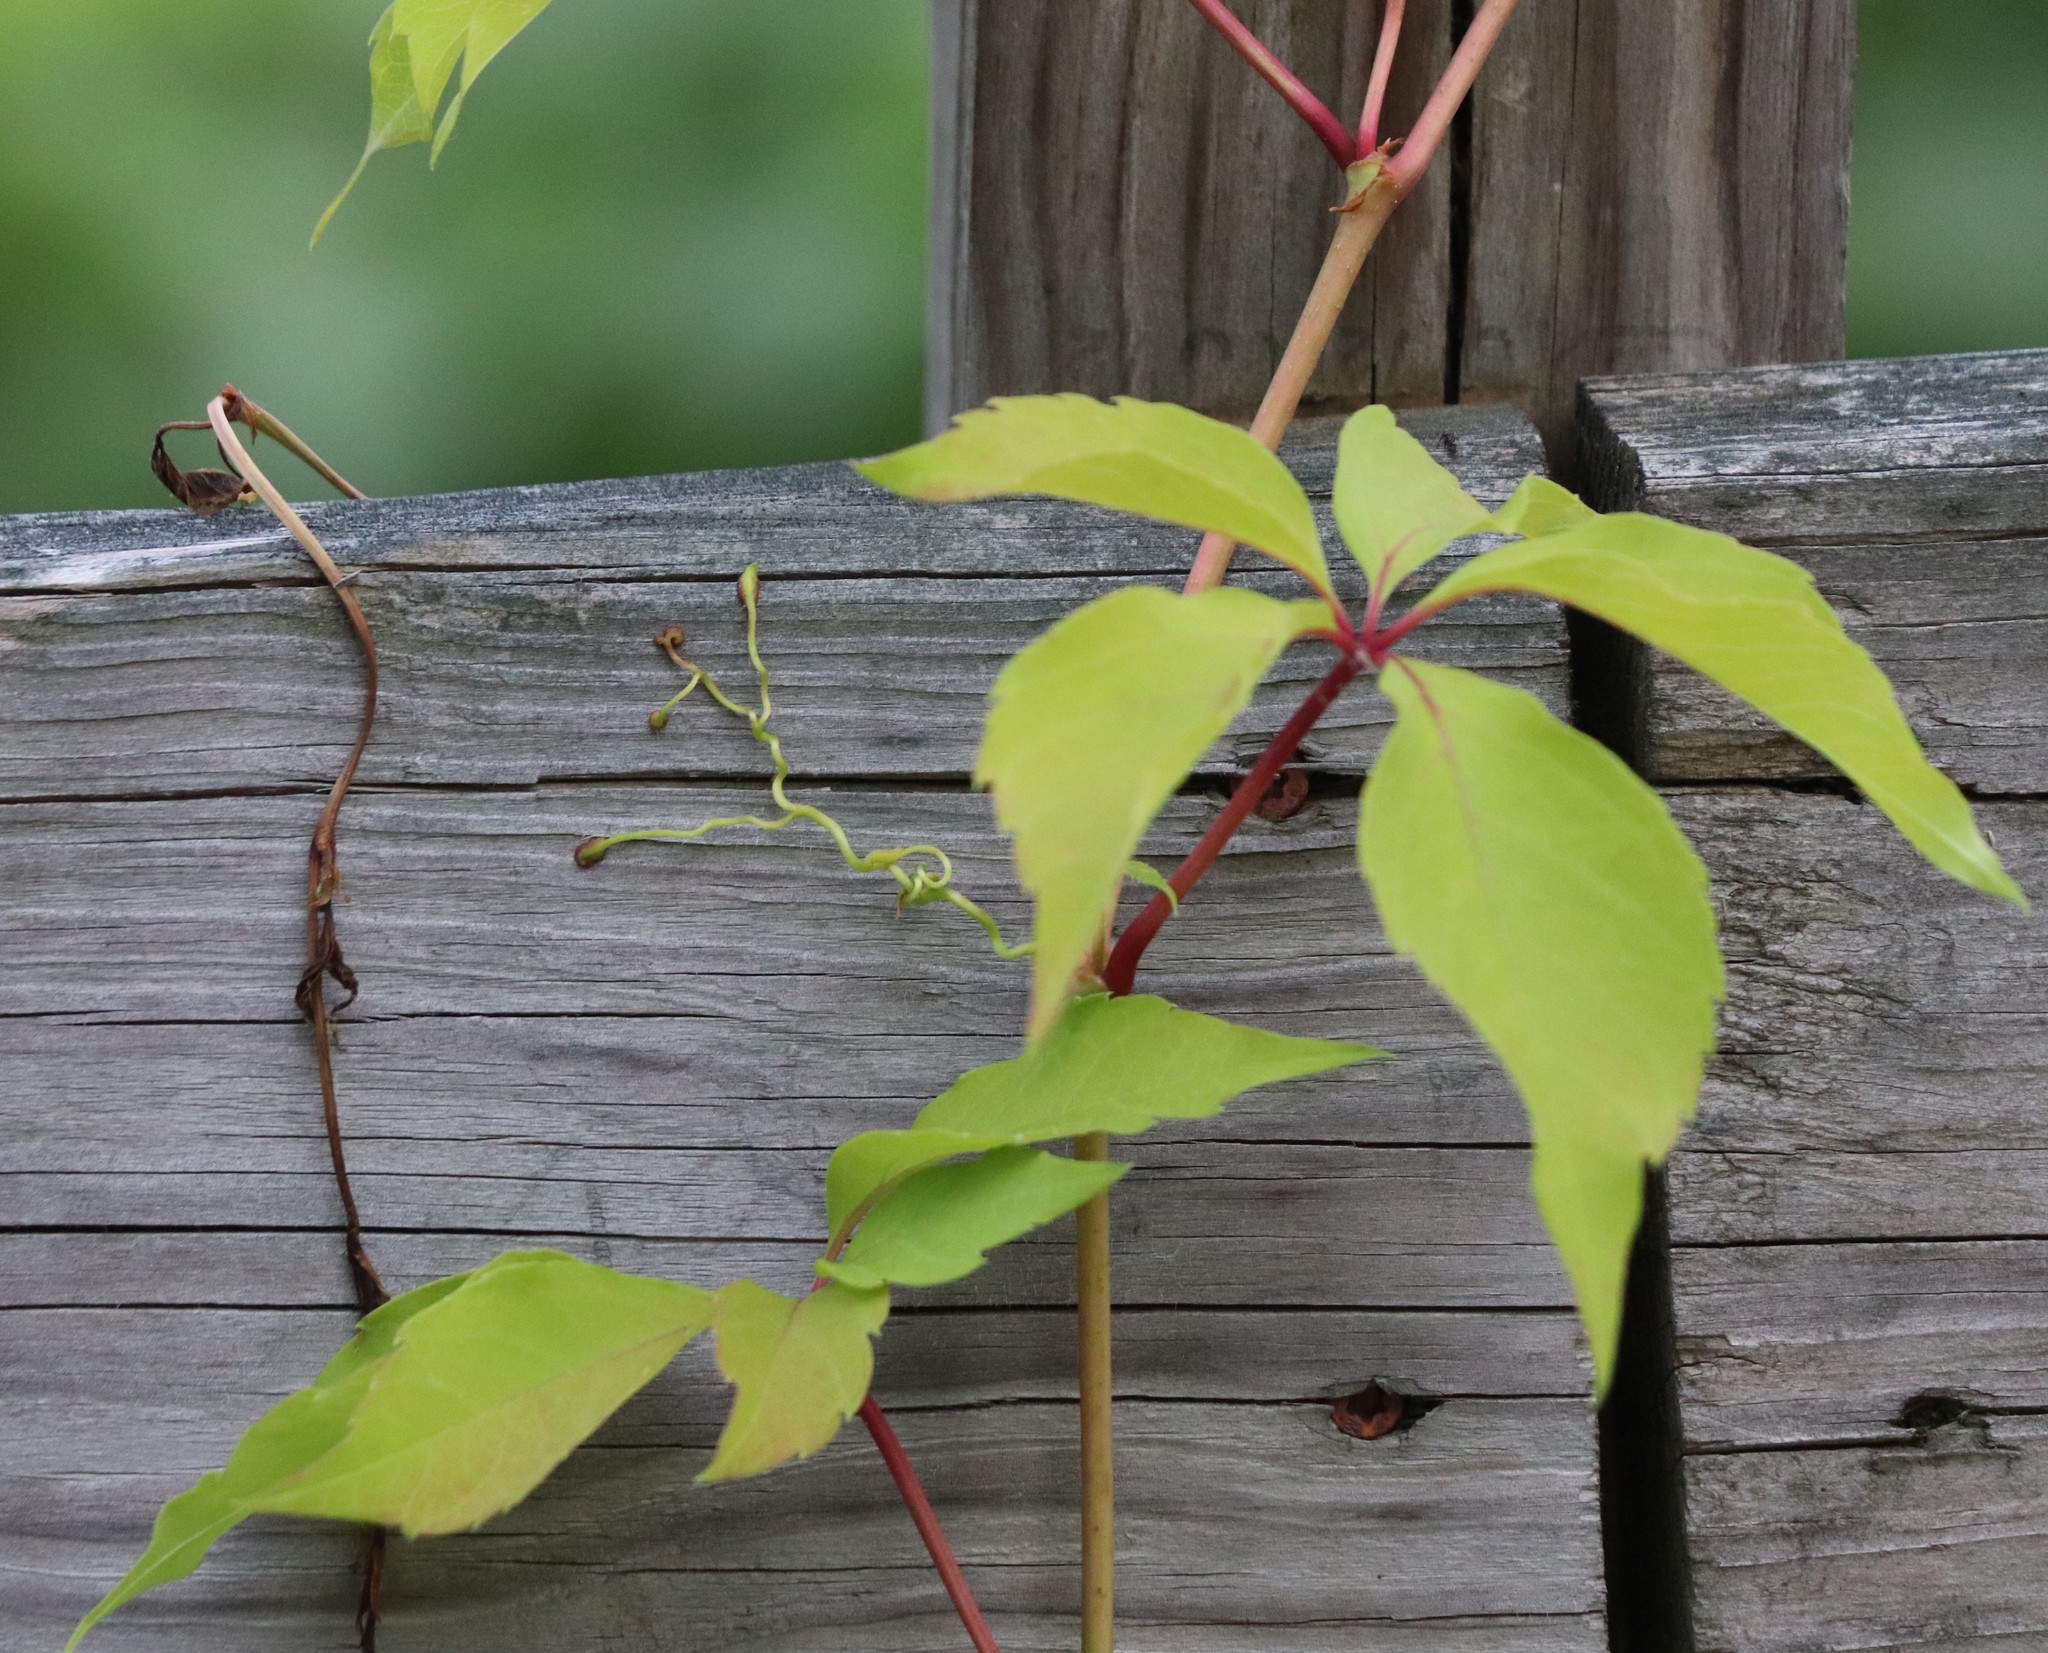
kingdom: Plantae
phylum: Tracheophyta
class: Magnoliopsida
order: Vitales
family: Vitaceae
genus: Parthenocissus
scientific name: Parthenocissus quinquefolia
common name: Virginia-creeper
